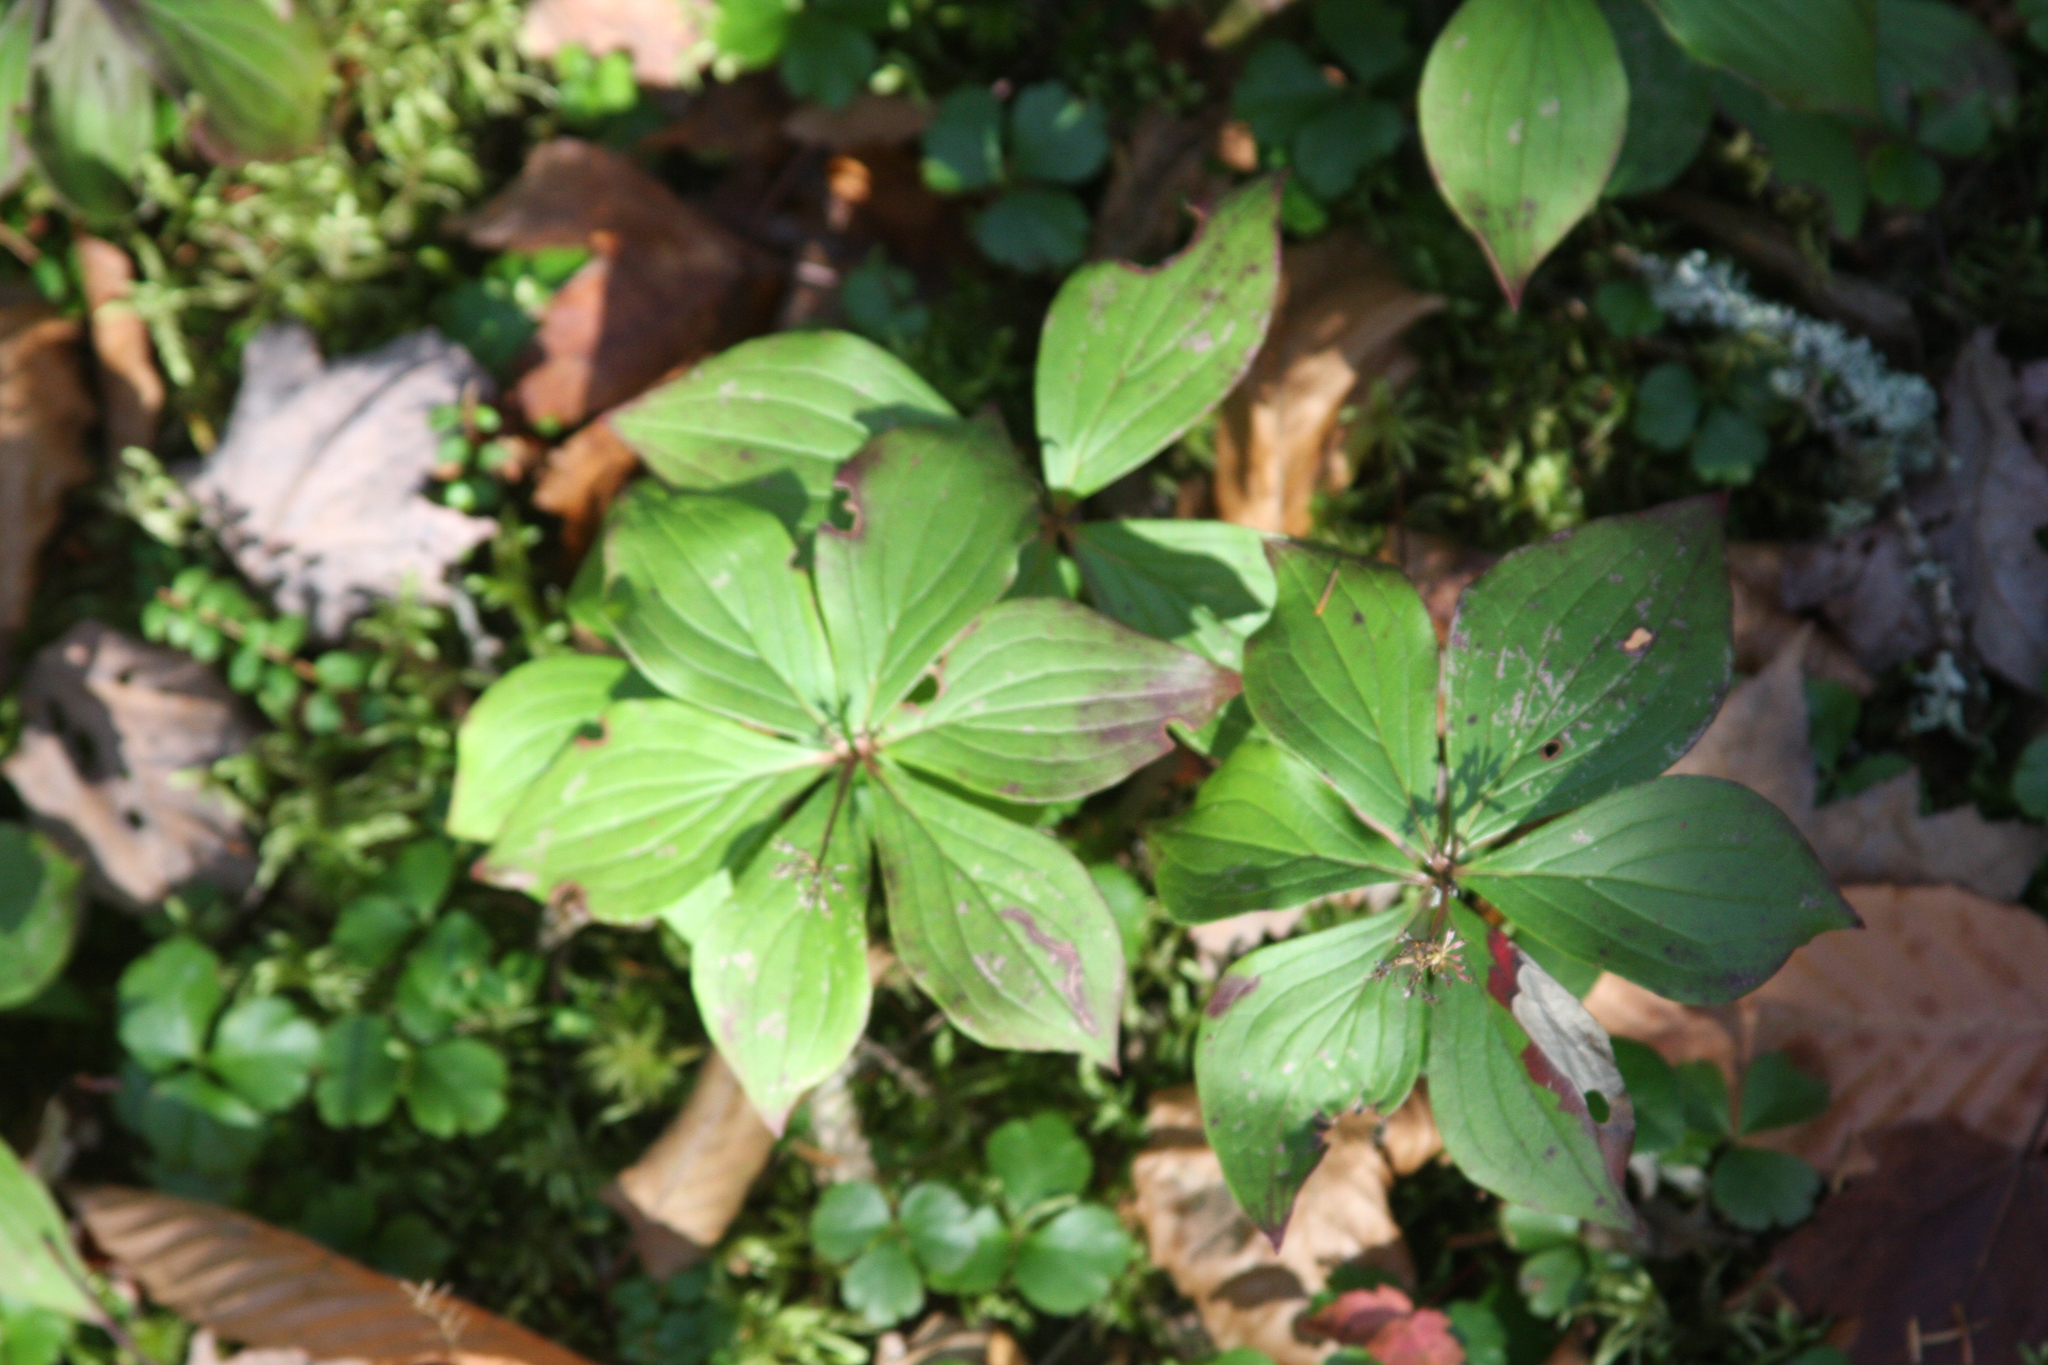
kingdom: Plantae
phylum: Tracheophyta
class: Magnoliopsida
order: Cornales
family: Cornaceae
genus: Cornus
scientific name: Cornus canadensis
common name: Creeping dogwood
